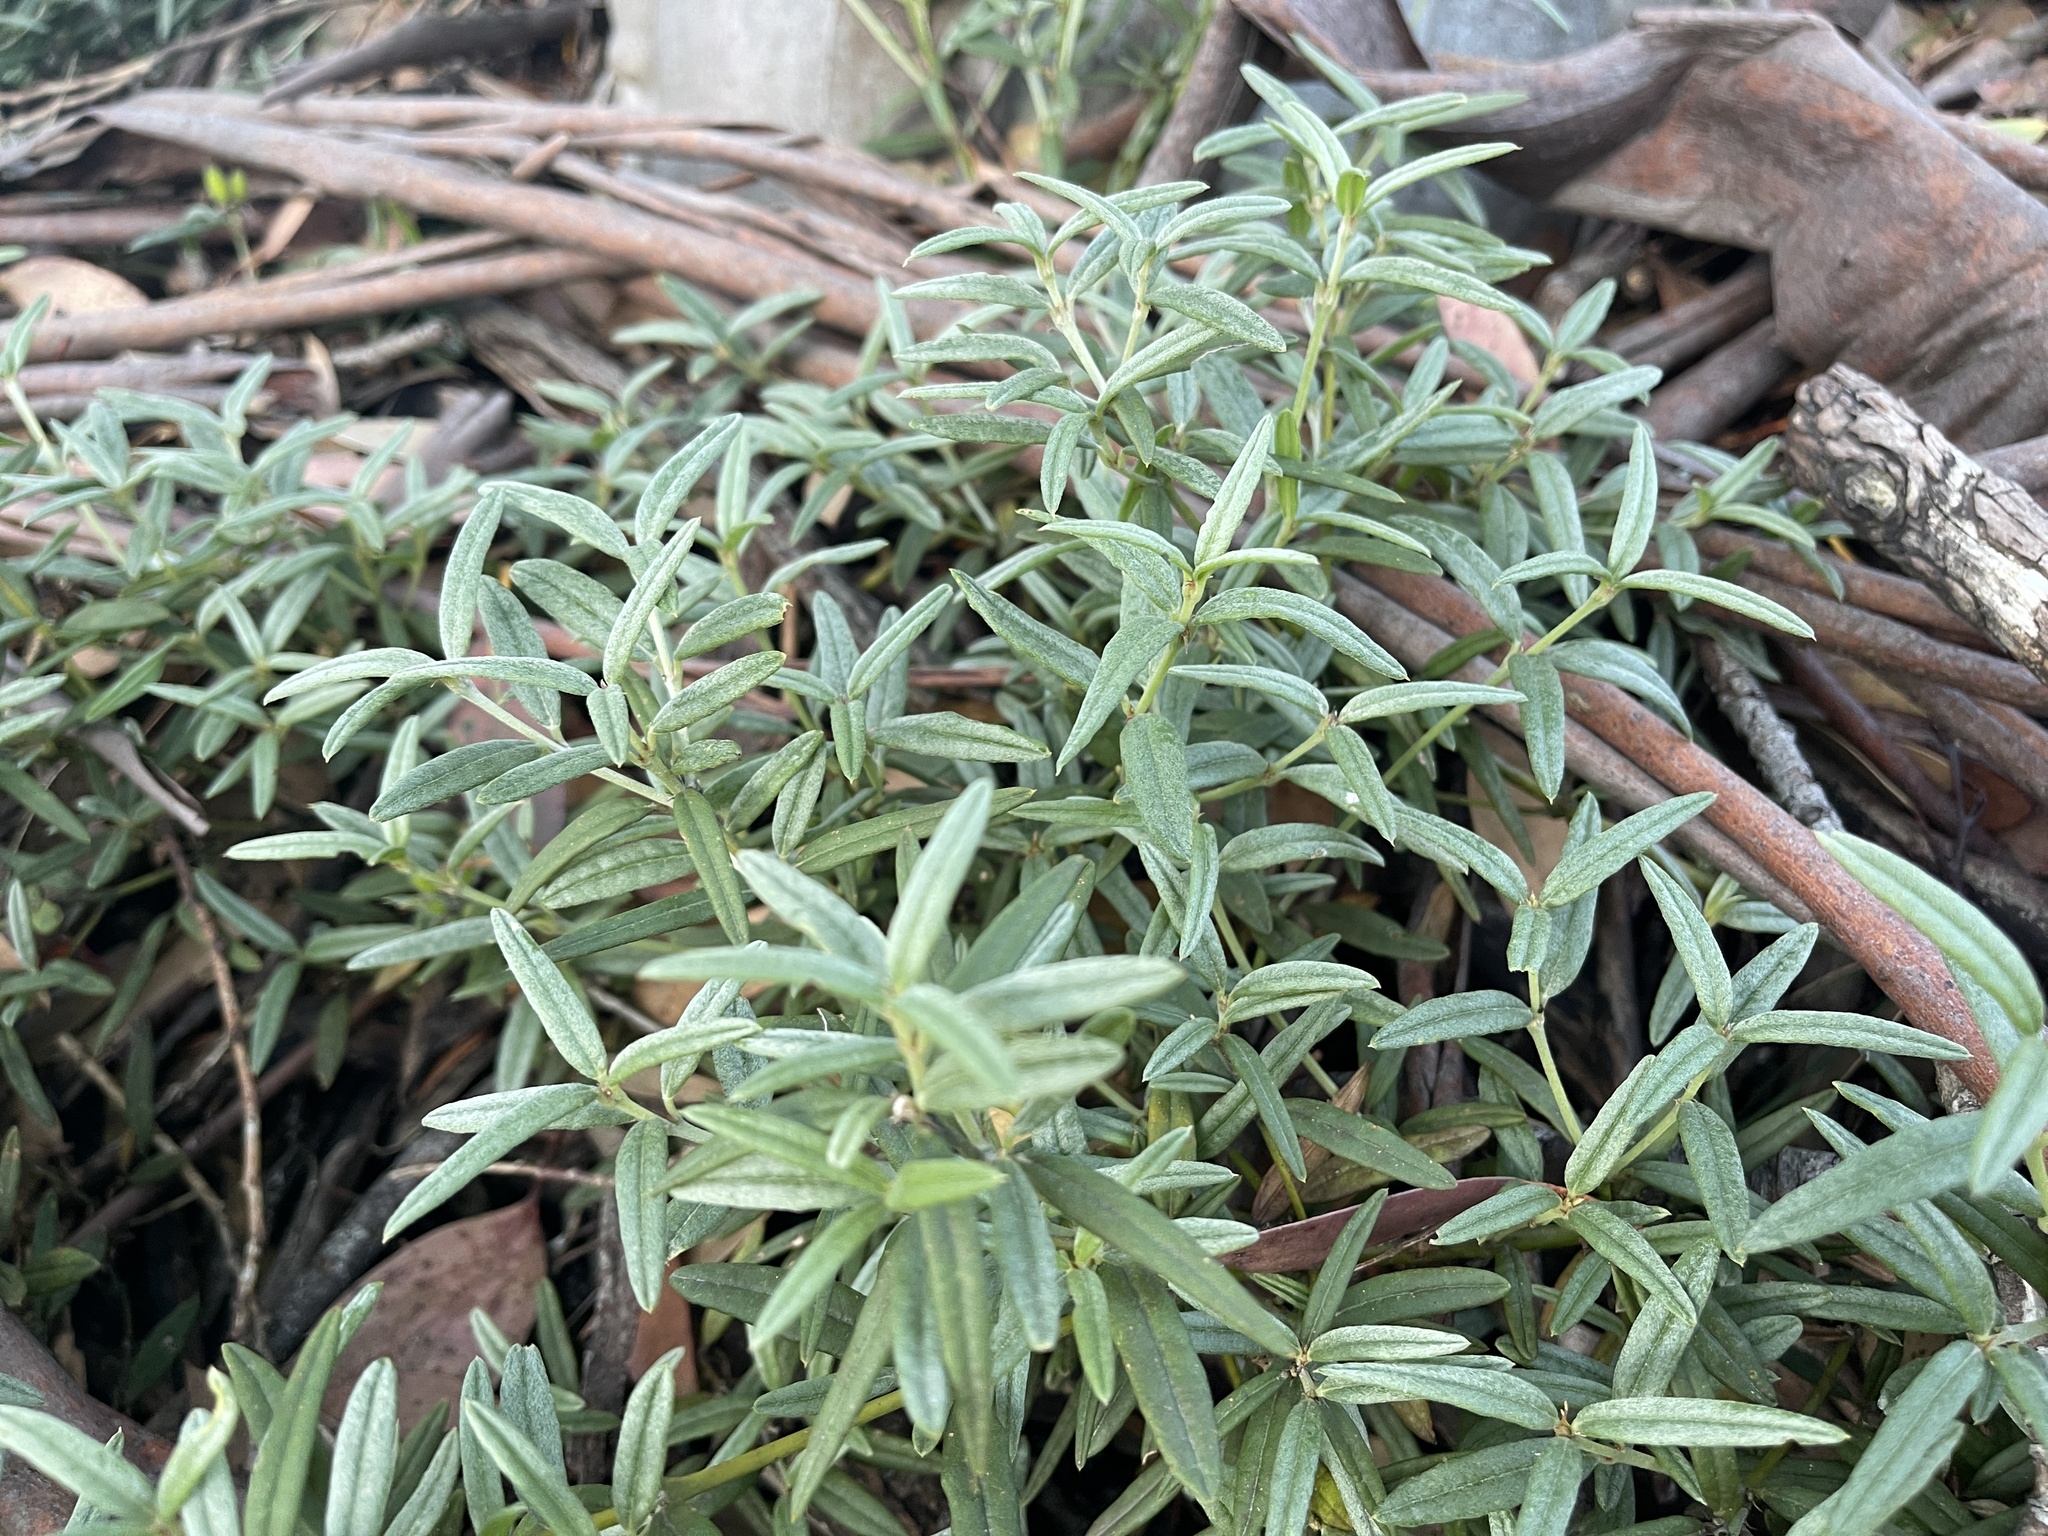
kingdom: Plantae
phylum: Tracheophyta
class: Magnoliopsida
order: Fabales
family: Fabaceae
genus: Podolobium
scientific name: Podolobium alpestre
